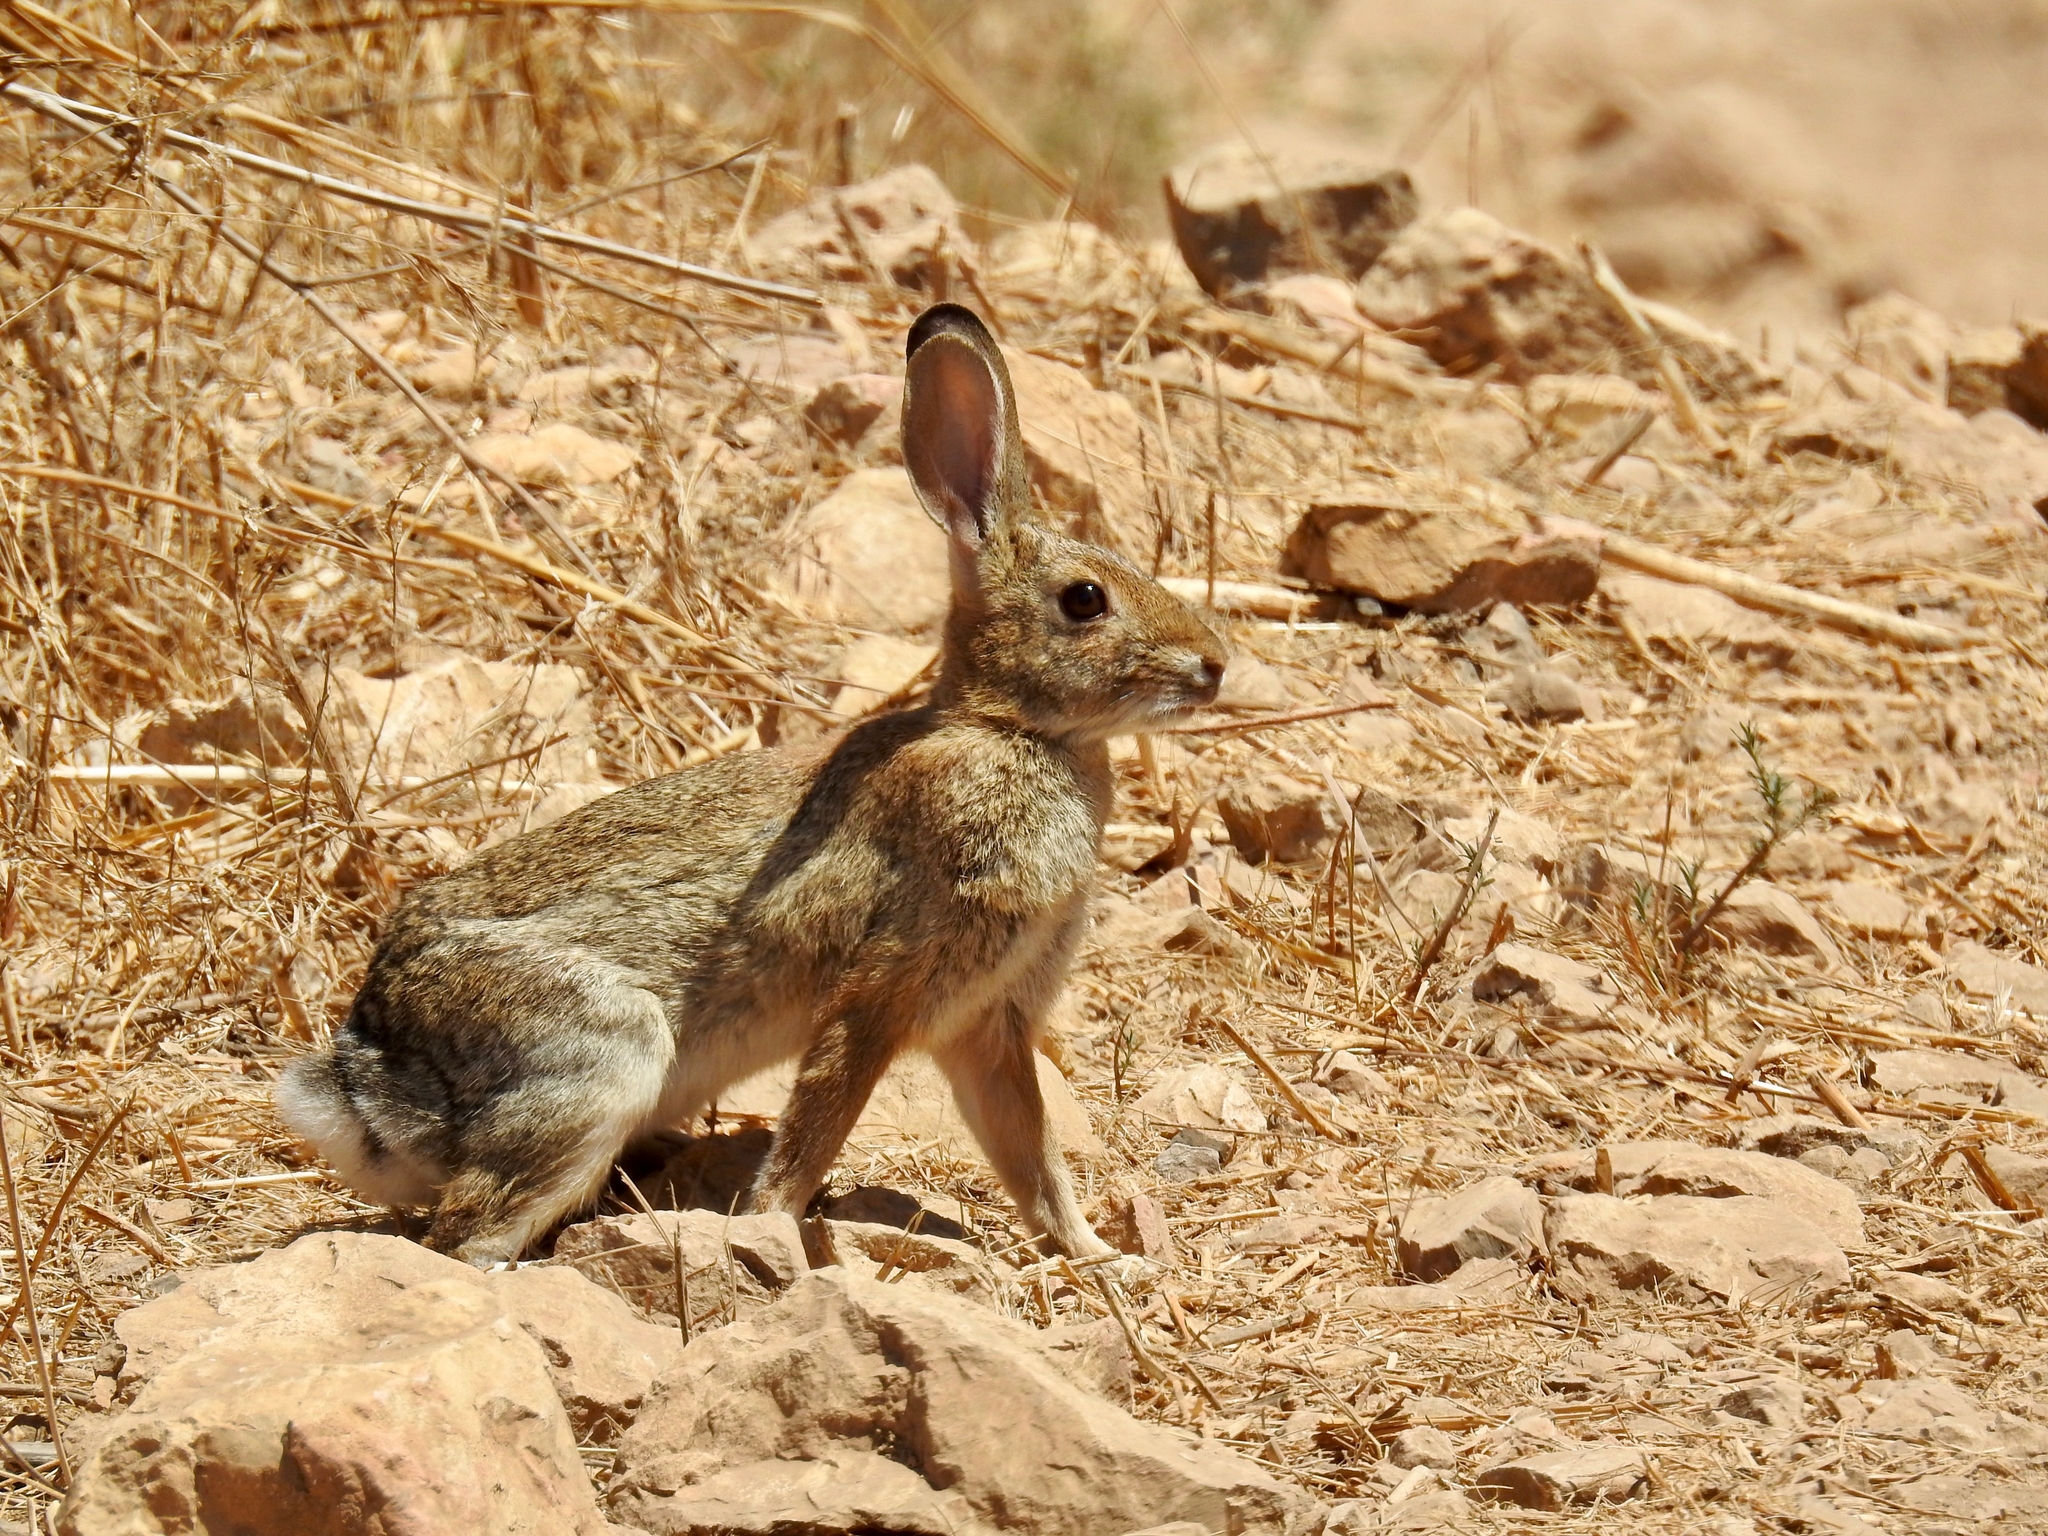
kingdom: Animalia
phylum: Chordata
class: Mammalia
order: Lagomorpha
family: Leporidae
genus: Sylvilagus
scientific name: Sylvilagus audubonii
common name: Desert cottontail
